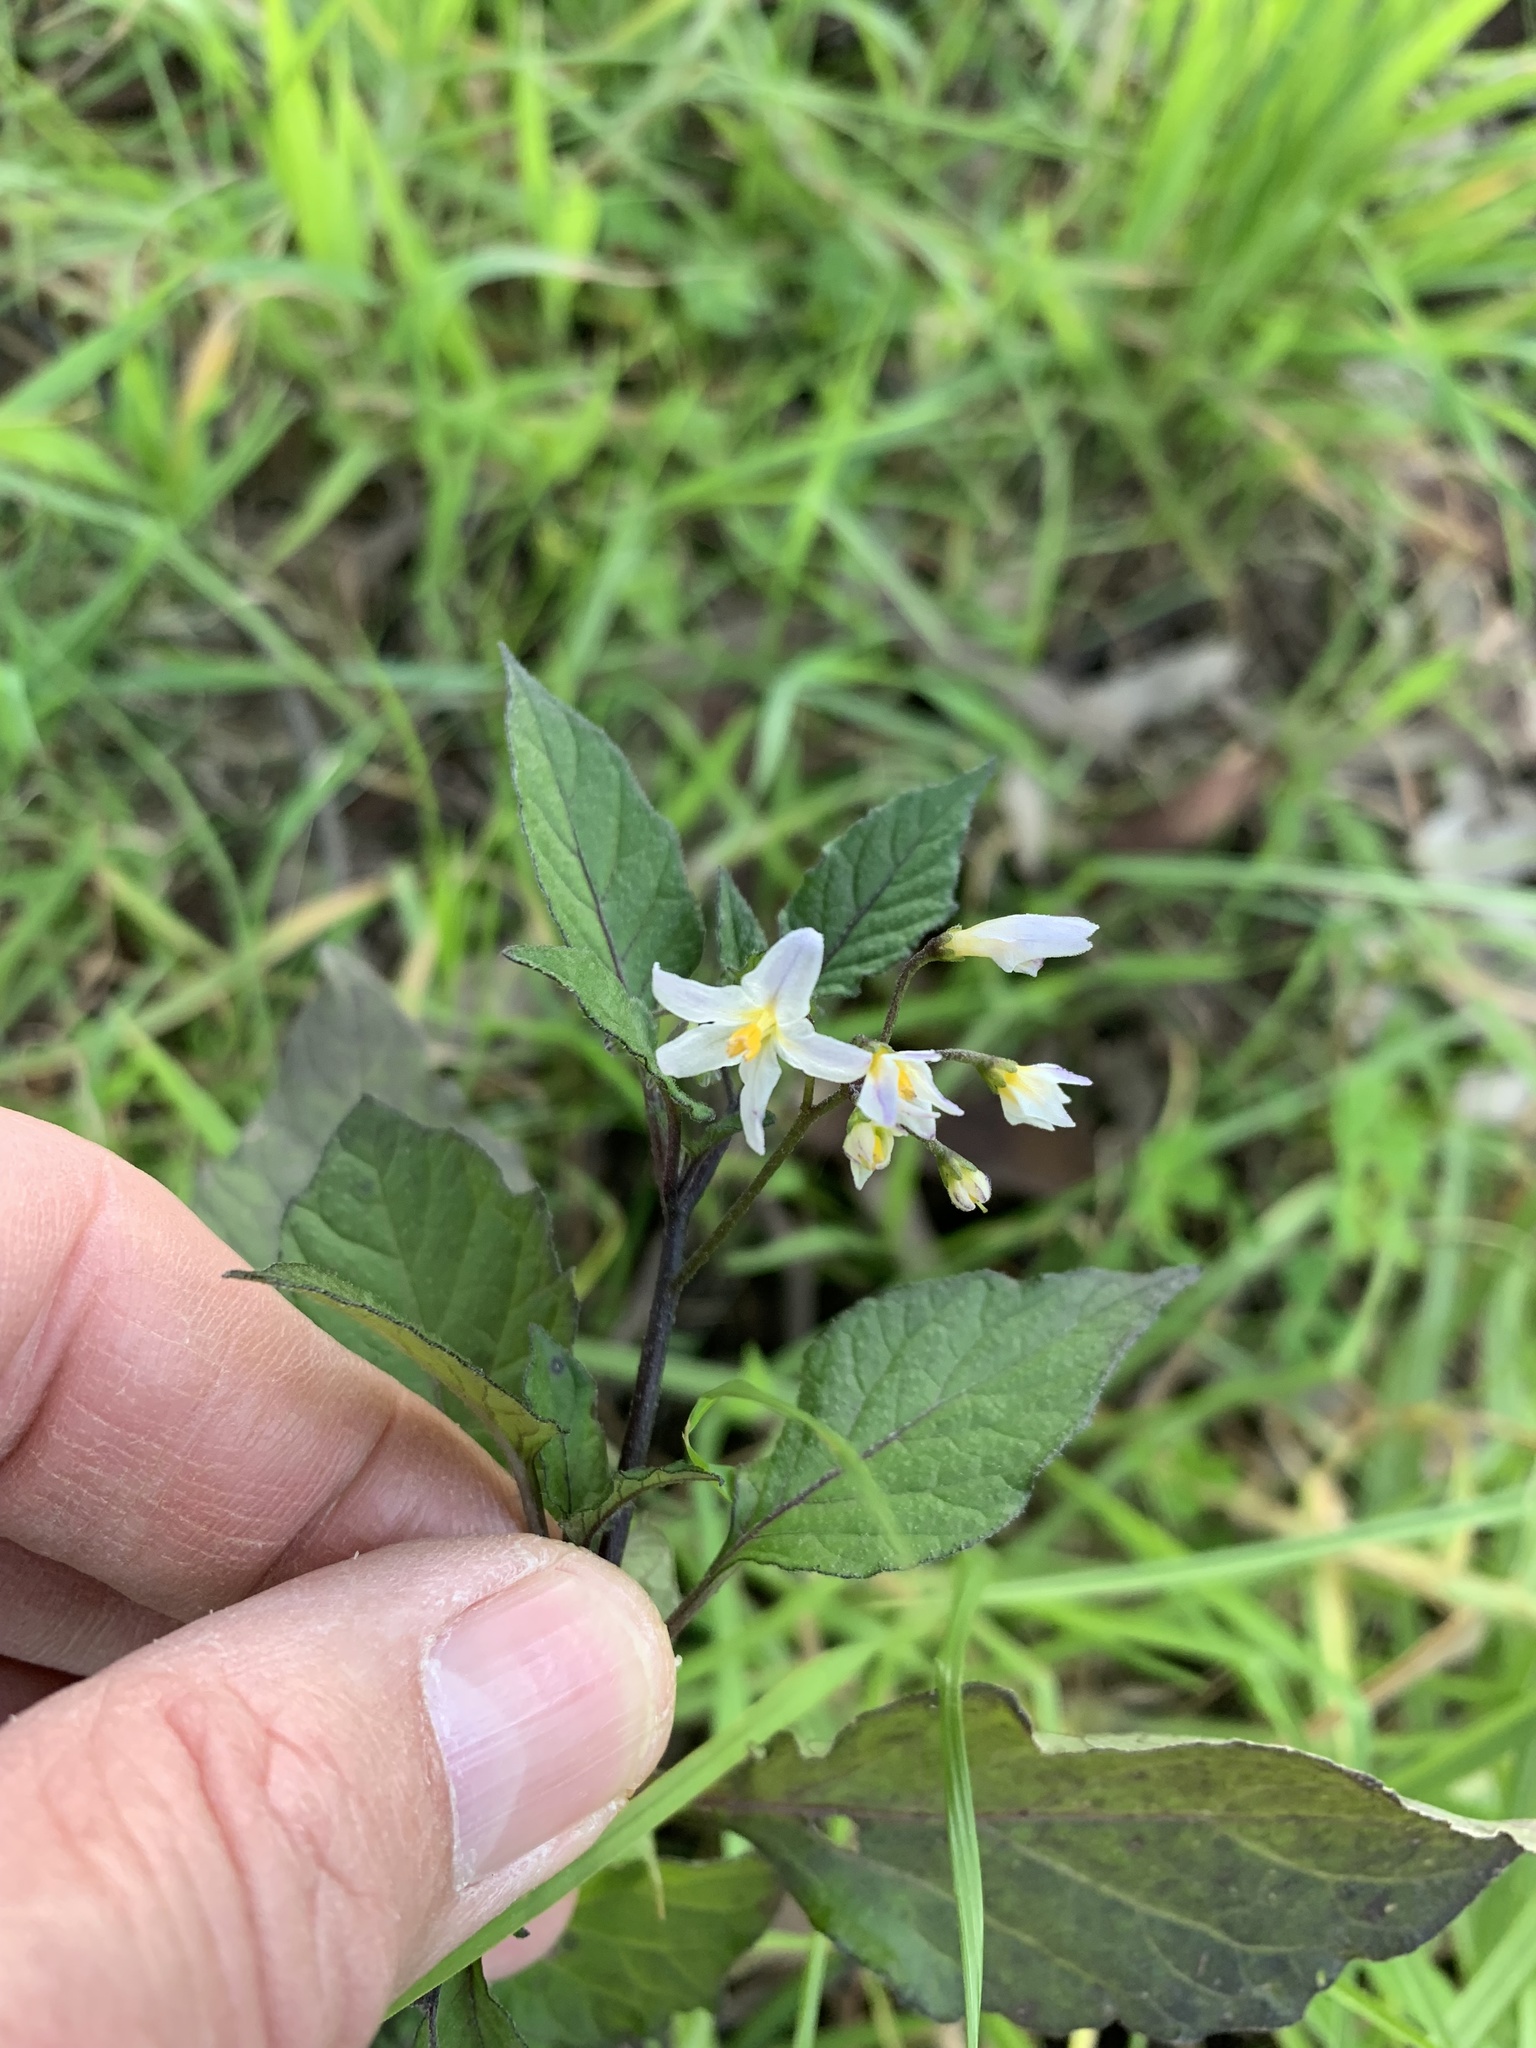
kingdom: Plantae
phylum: Tracheophyta
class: Magnoliopsida
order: Solanales
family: Solanaceae
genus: Solanum
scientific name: Solanum nigrum
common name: Black nightshade
